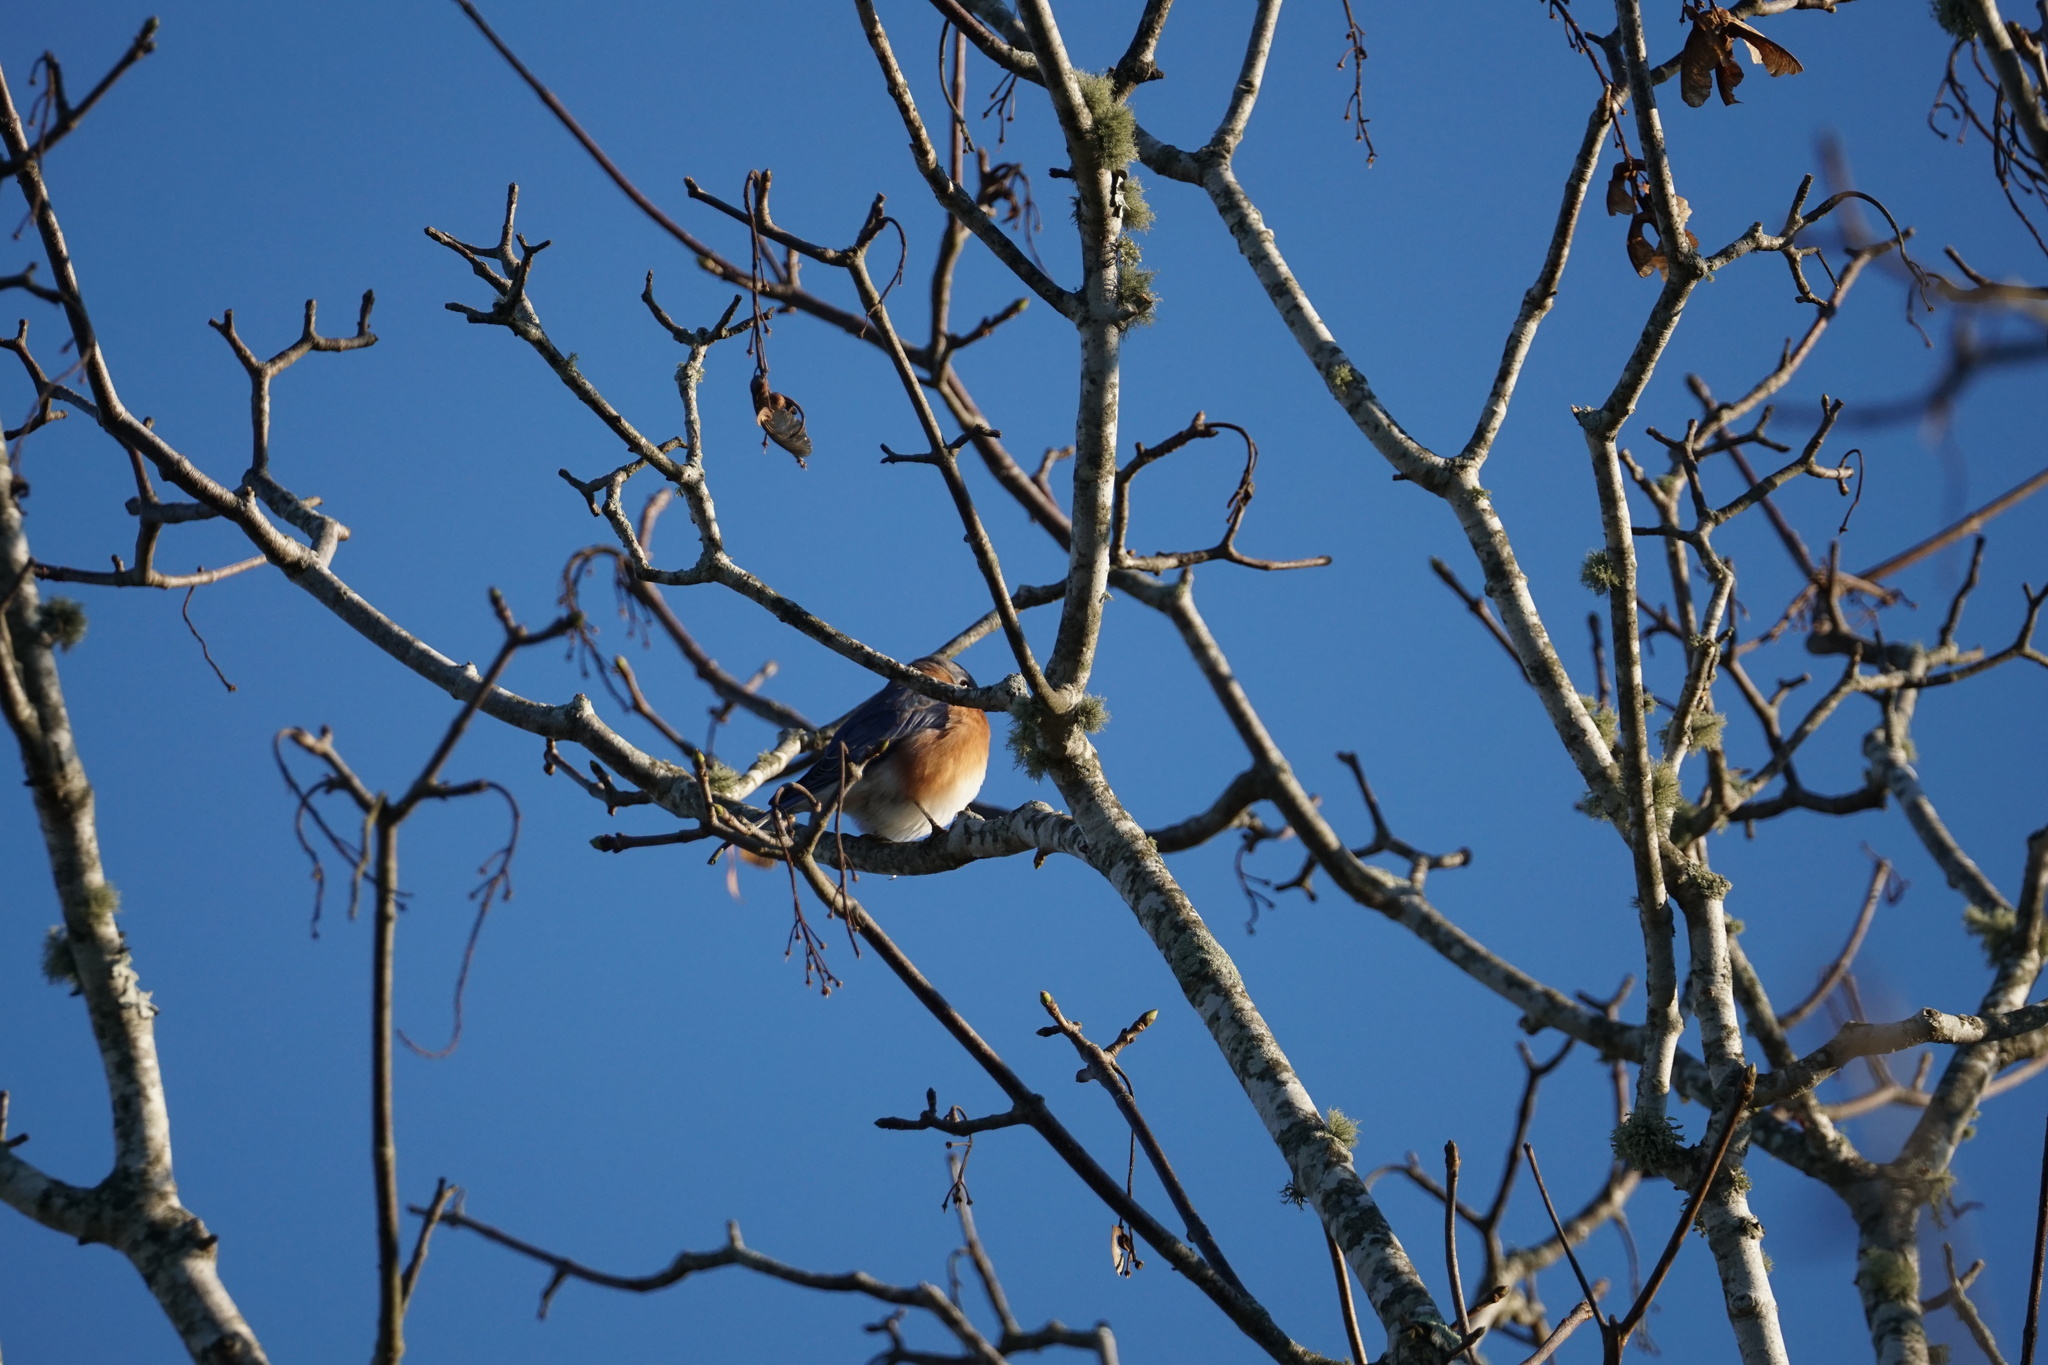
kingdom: Animalia
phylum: Chordata
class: Aves
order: Passeriformes
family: Turdidae
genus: Sialia
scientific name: Sialia sialis
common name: Eastern bluebird
